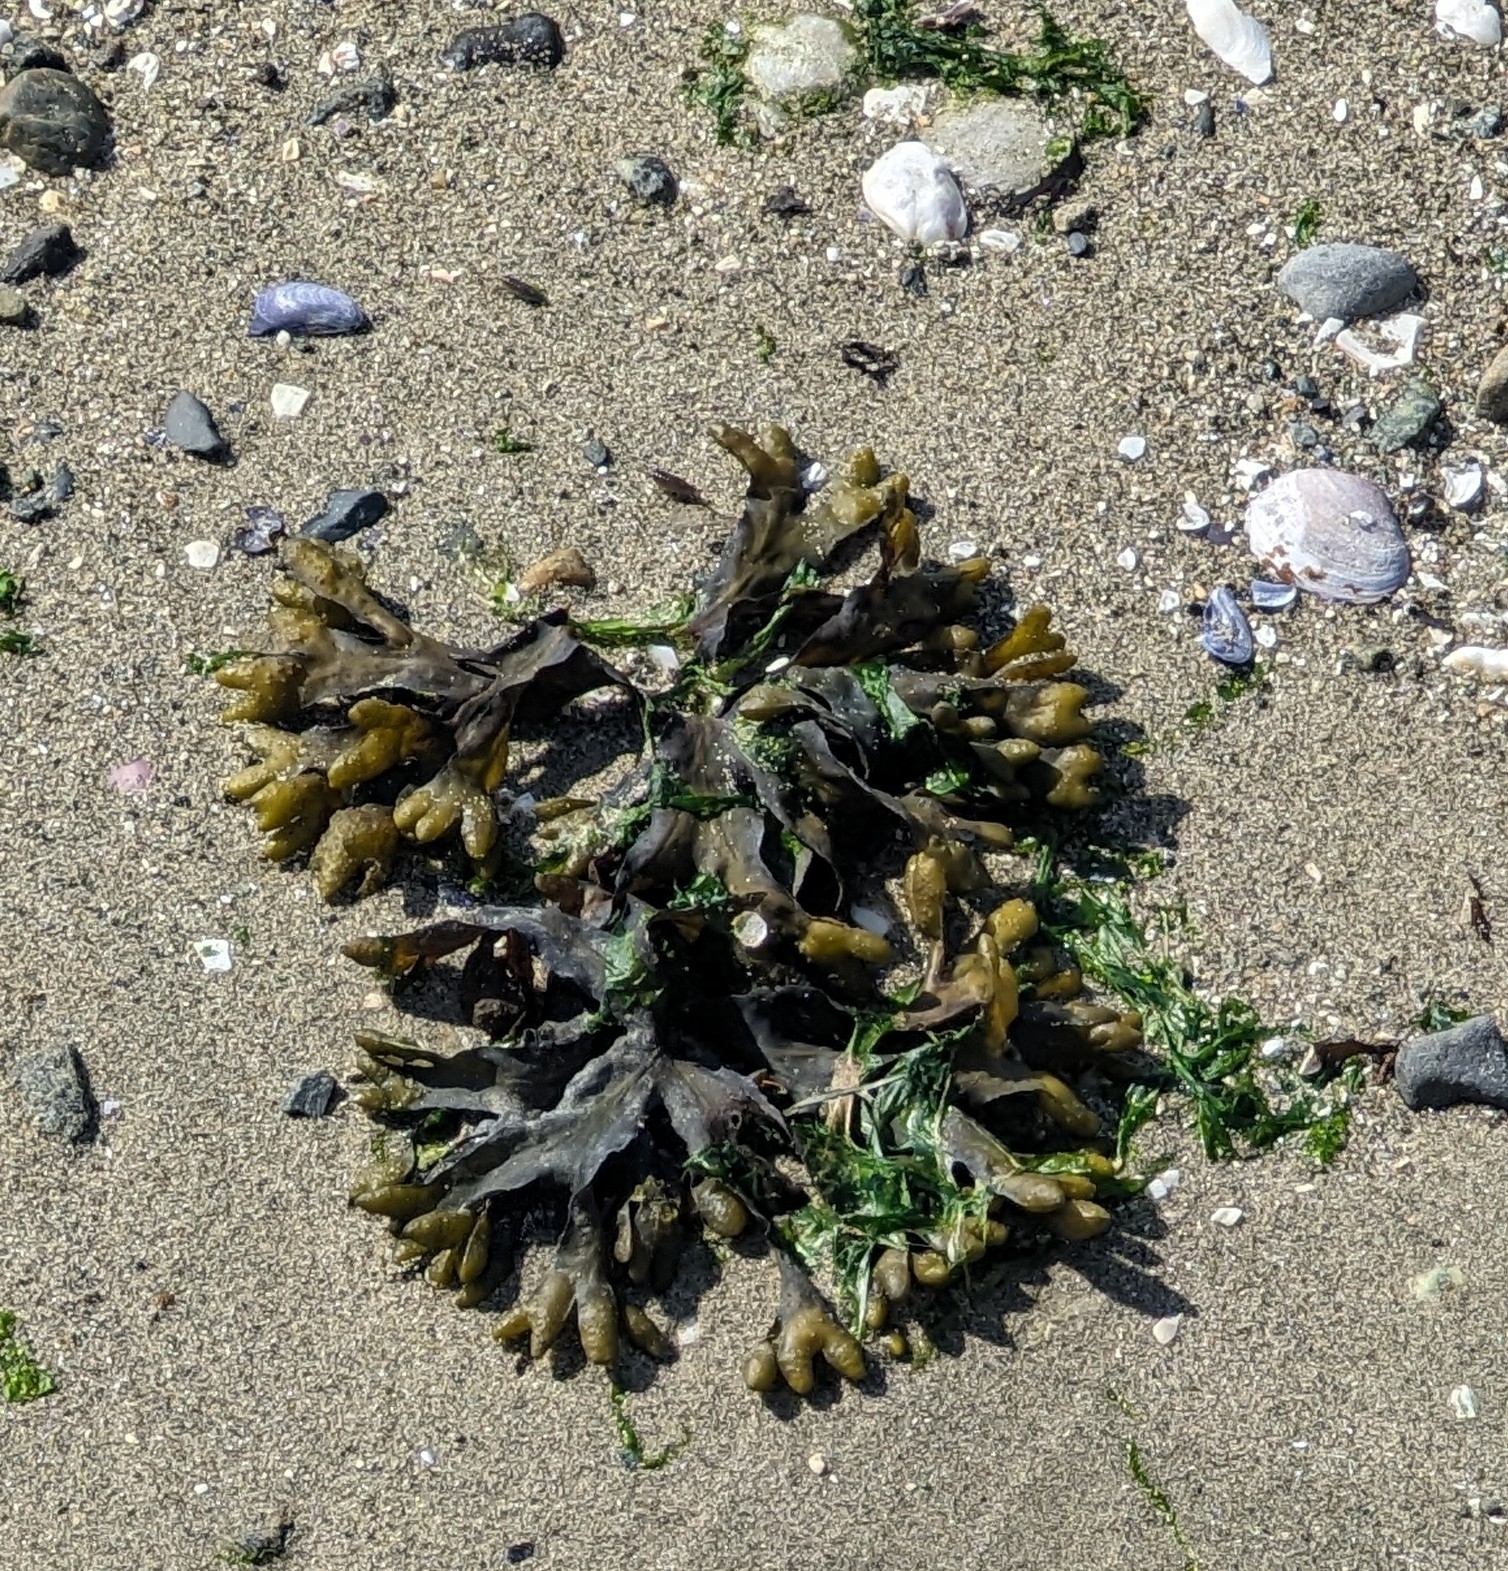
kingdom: Chromista
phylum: Ochrophyta
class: Phaeophyceae
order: Fucales
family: Fucaceae
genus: Fucus
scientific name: Fucus distichus
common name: Rockweed
